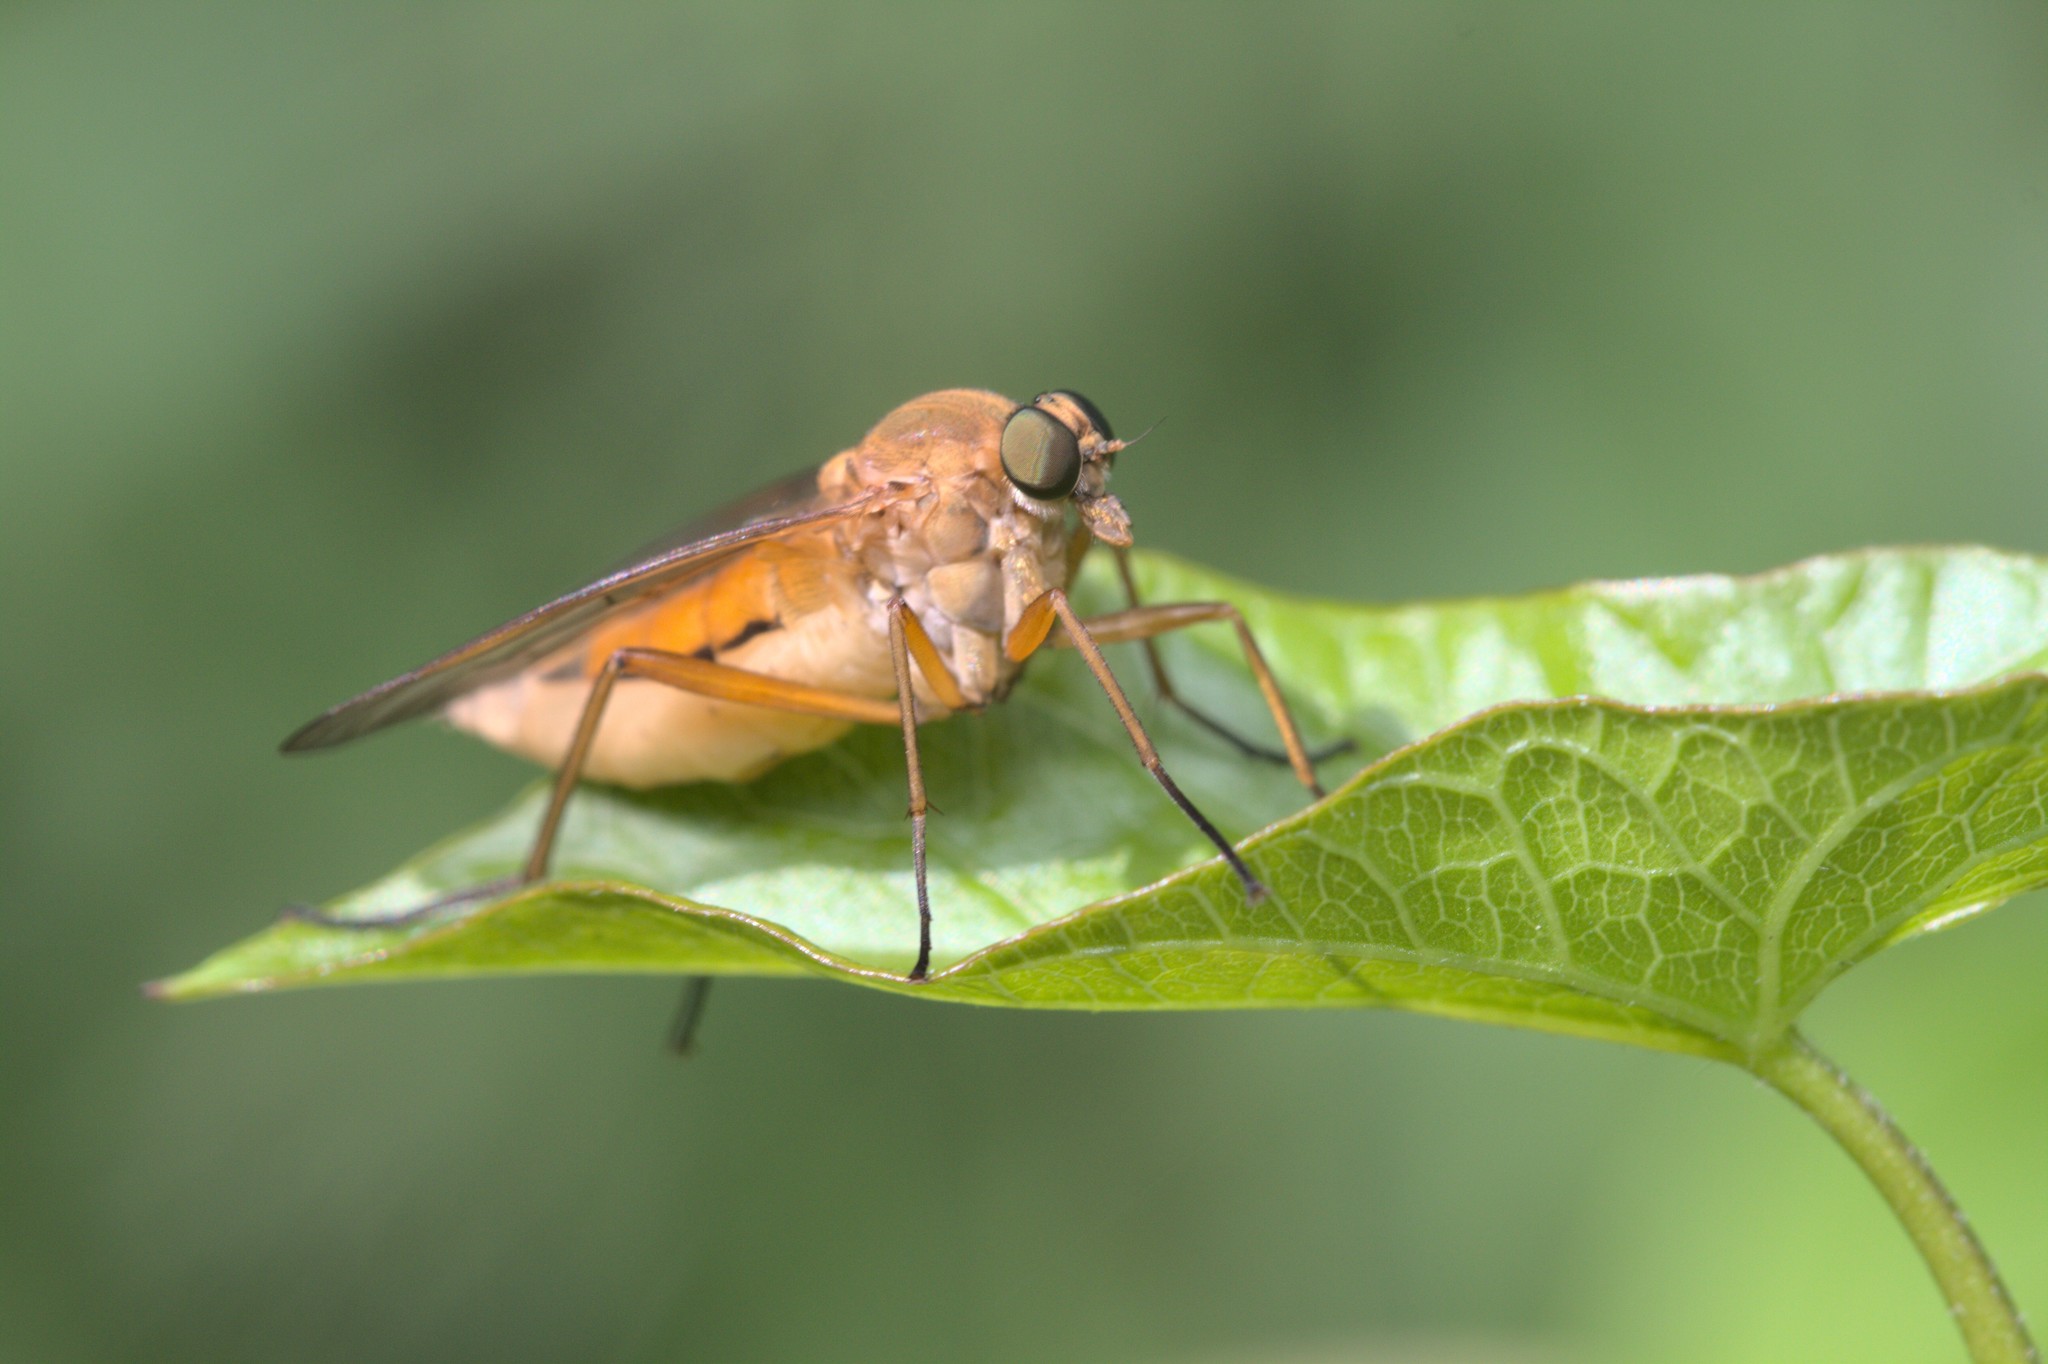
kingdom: Animalia
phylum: Arthropoda
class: Insecta
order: Diptera
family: Rhagionidae
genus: Rhagio
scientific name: Rhagio tringaria
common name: Marsh snipefly
